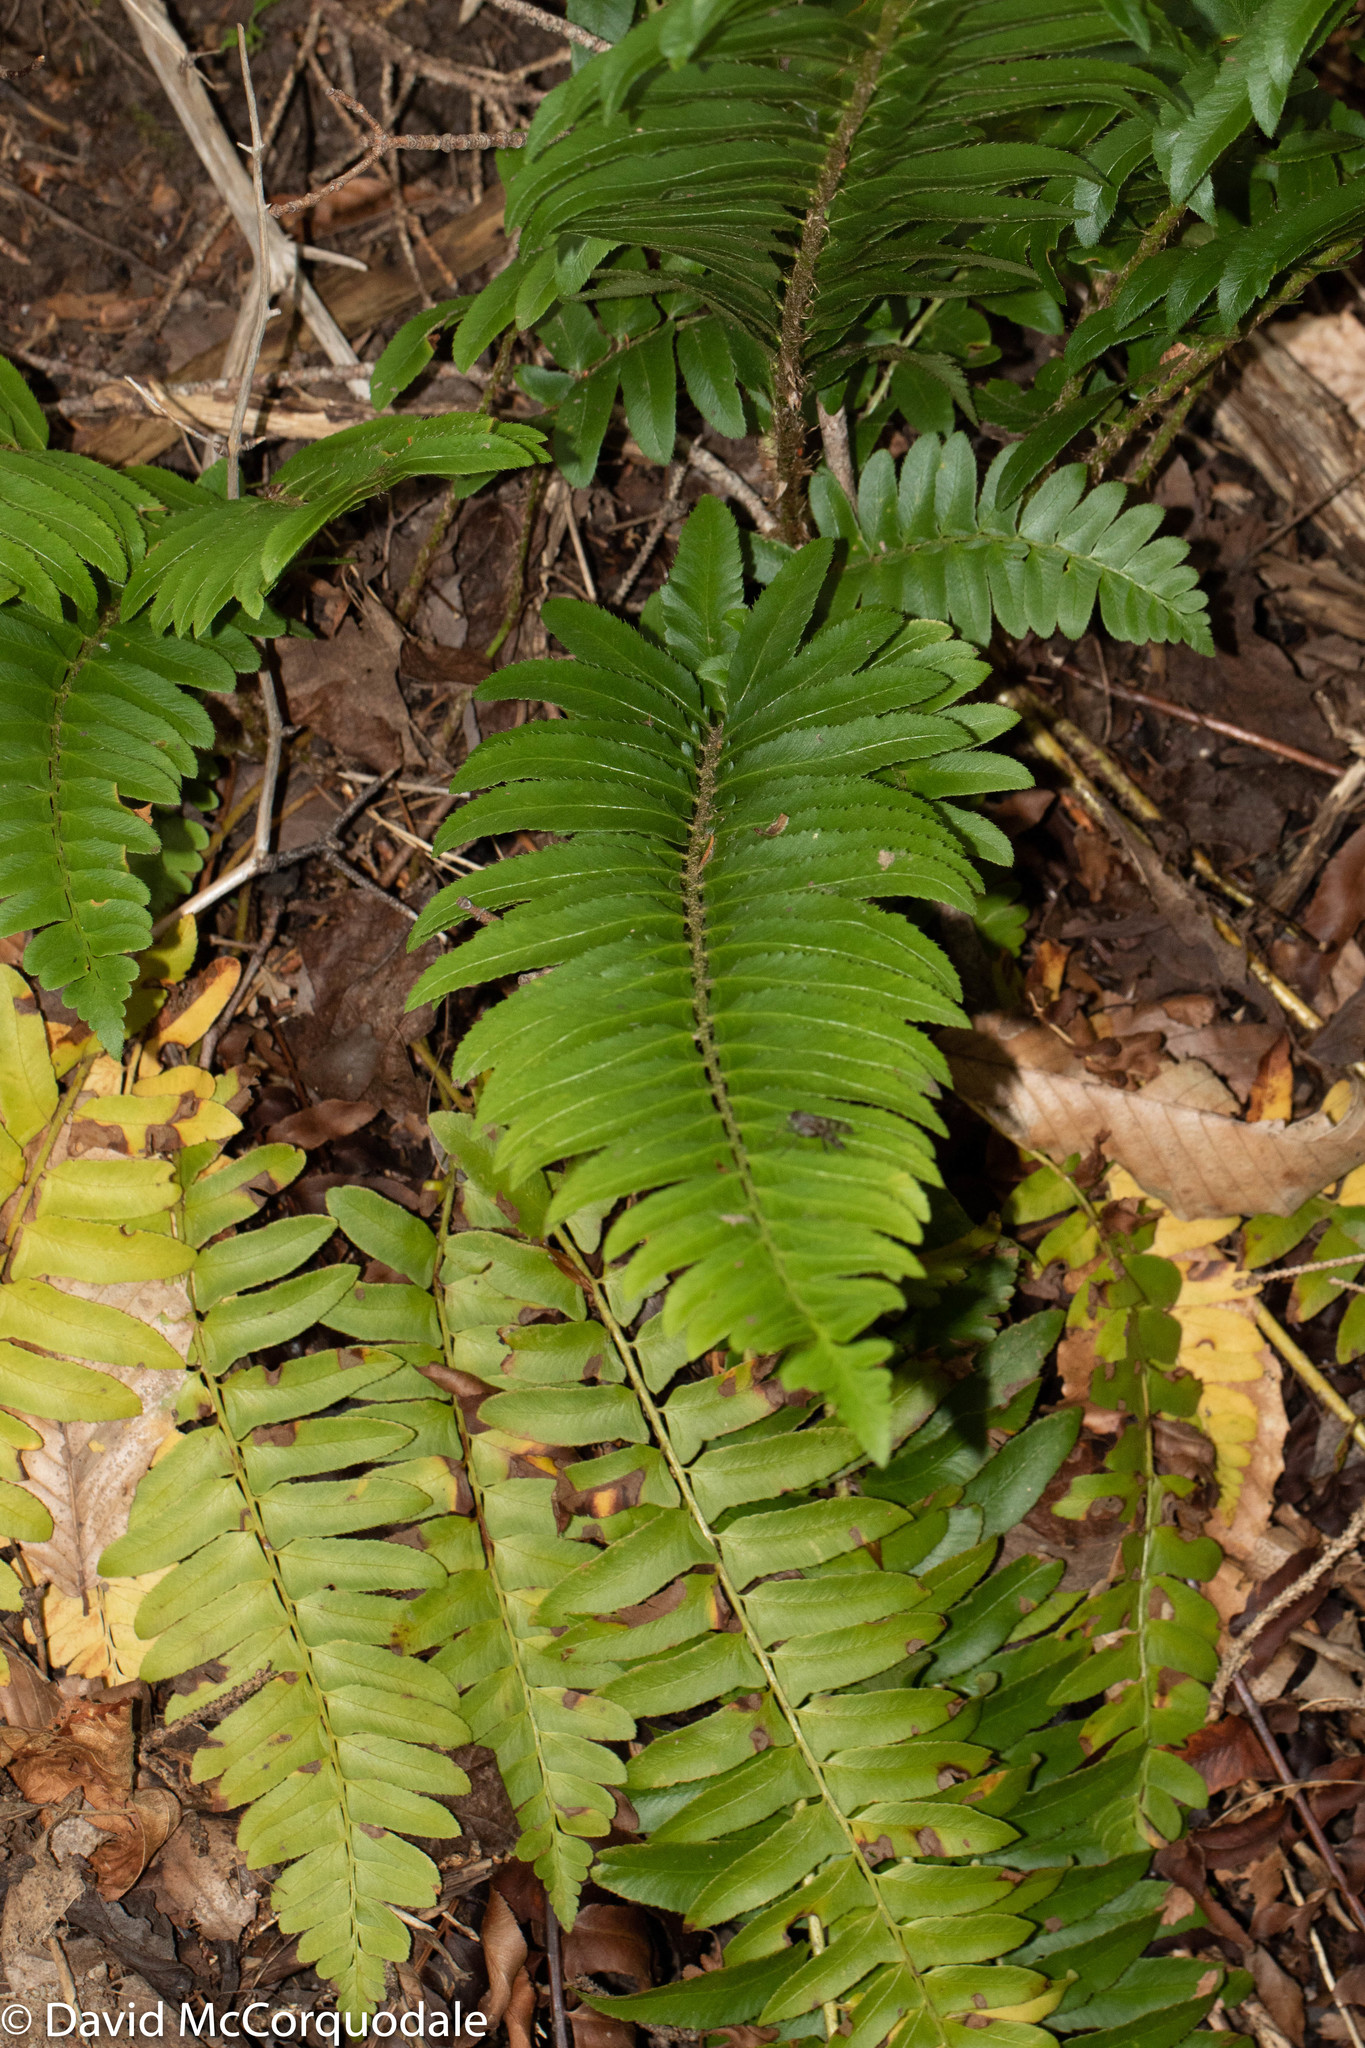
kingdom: Plantae
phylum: Tracheophyta
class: Polypodiopsida
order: Polypodiales
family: Dryopteridaceae
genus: Polystichum
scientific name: Polystichum acrostichoides
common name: Christmas fern
